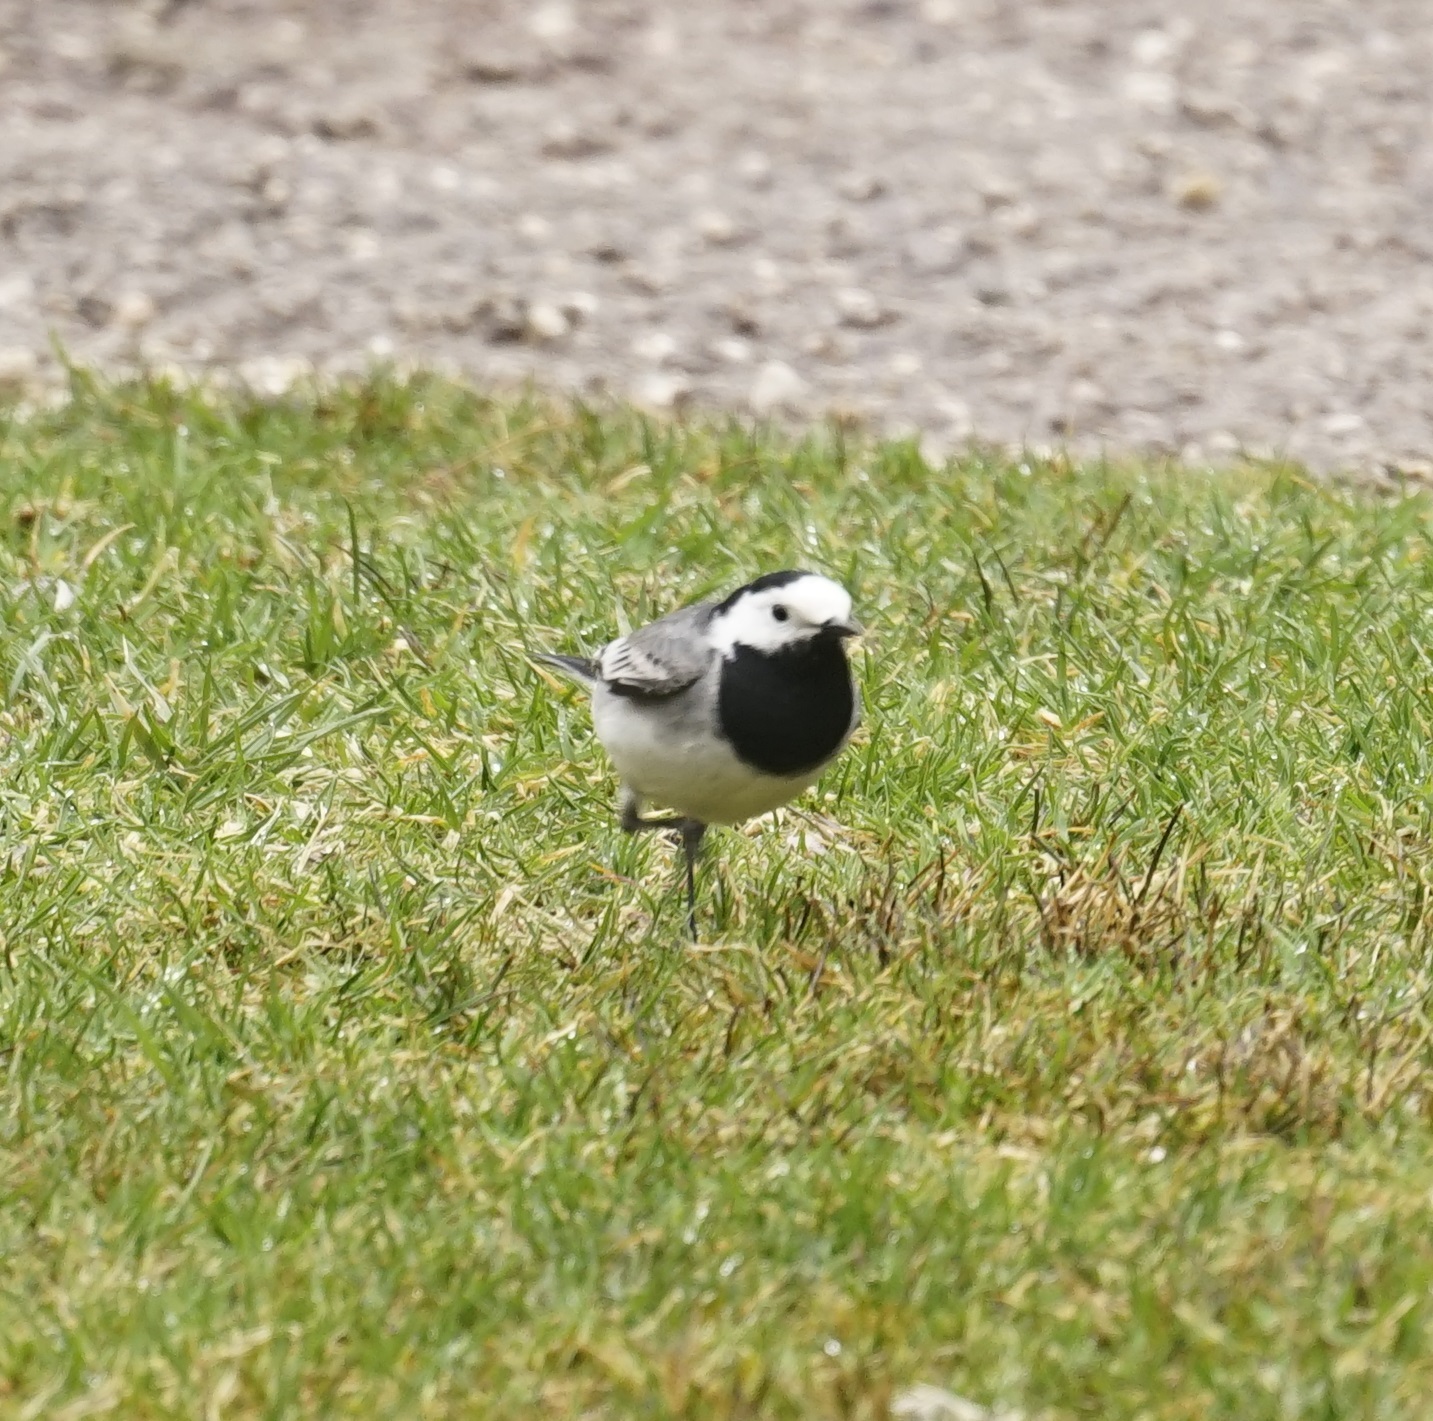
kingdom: Animalia
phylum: Chordata
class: Aves
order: Passeriformes
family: Motacillidae
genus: Motacilla
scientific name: Motacilla alba
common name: White wagtail
